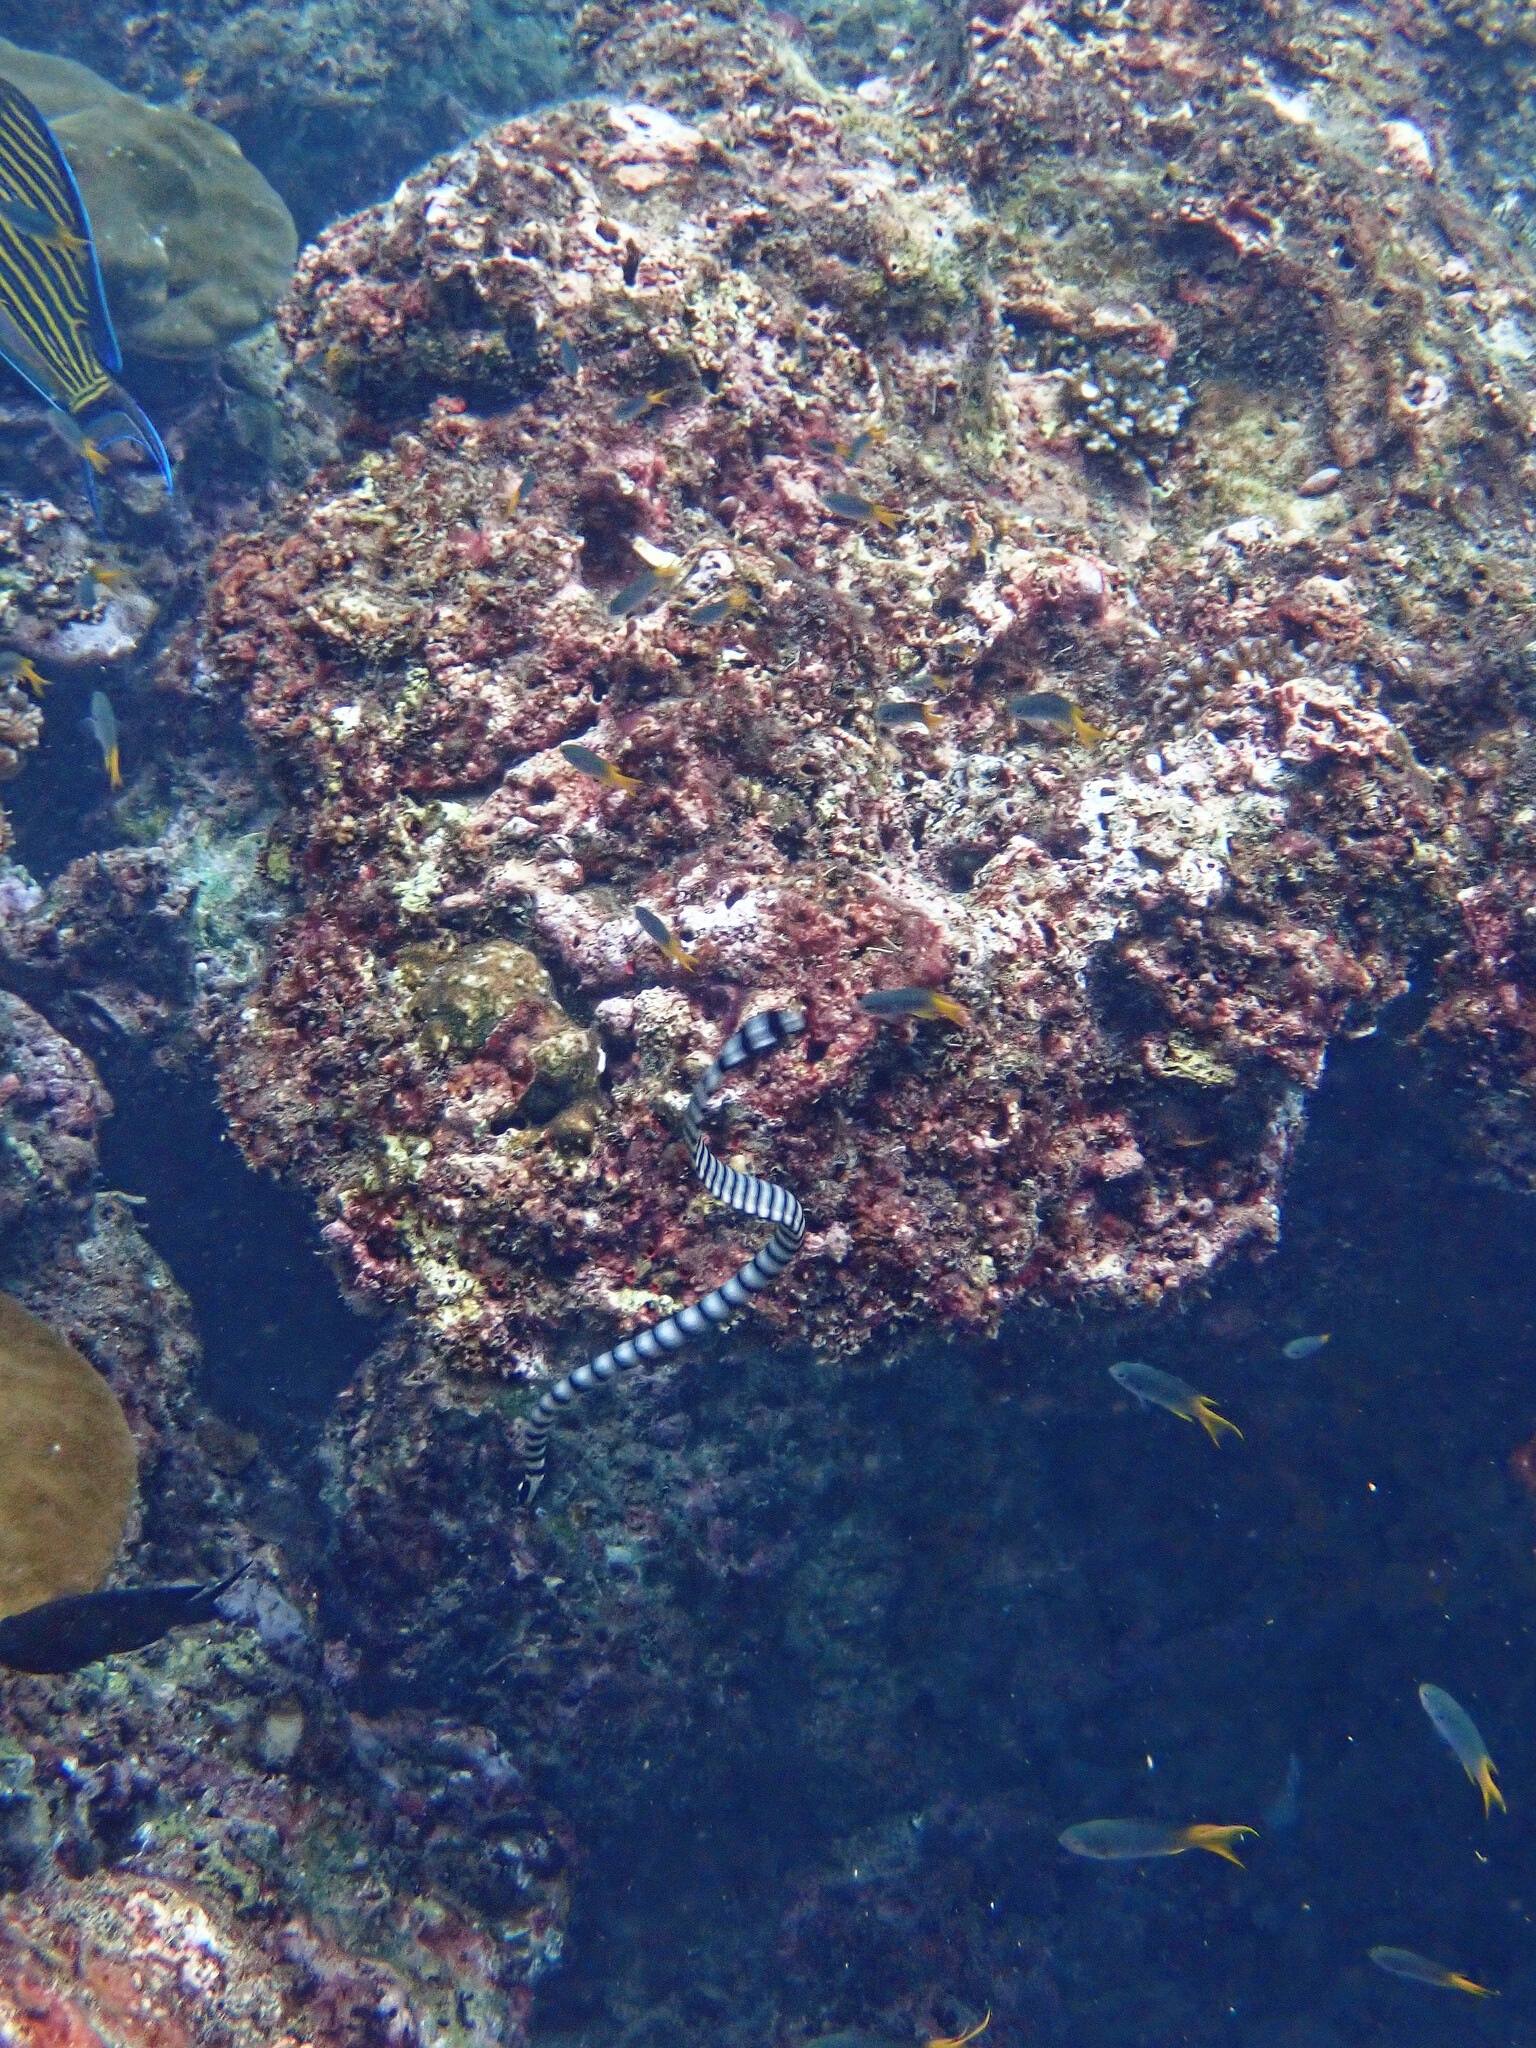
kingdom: Animalia
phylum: Chordata
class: Squamata
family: Elapidae
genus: Laticauda
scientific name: Laticauda colubrina
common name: Yellow-lipped sea krait
